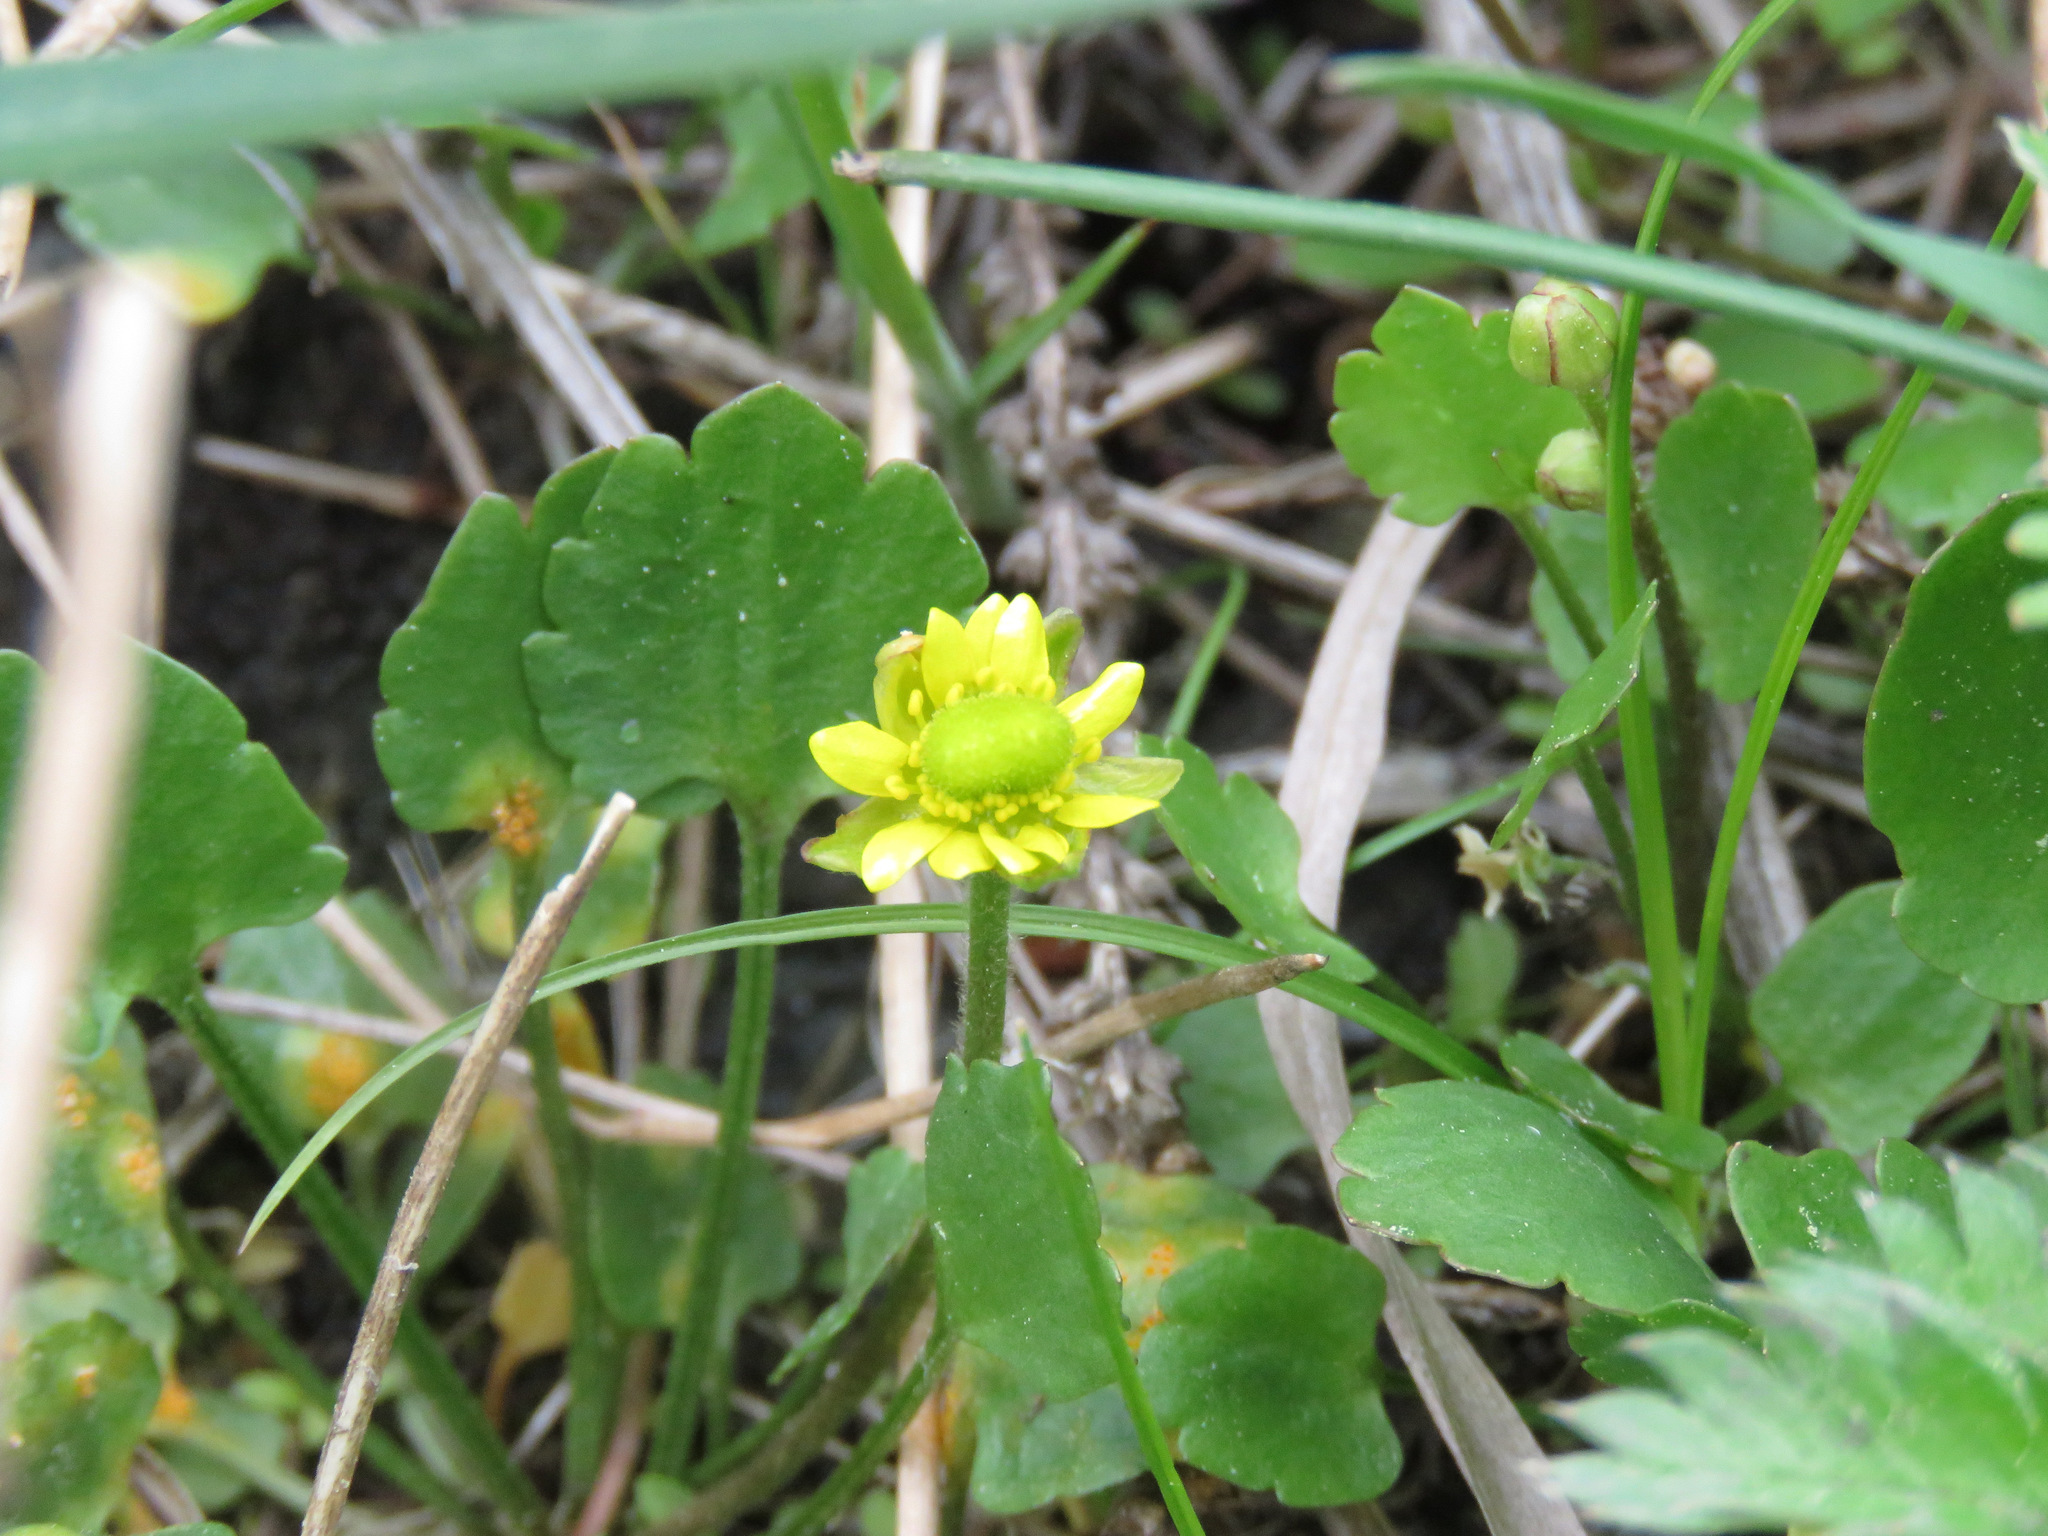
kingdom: Plantae
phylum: Tracheophyta
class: Magnoliopsida
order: Ranunculales
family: Ranunculaceae
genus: Halerpestes
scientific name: Halerpestes cymbalaria
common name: Seaside crowfoot
